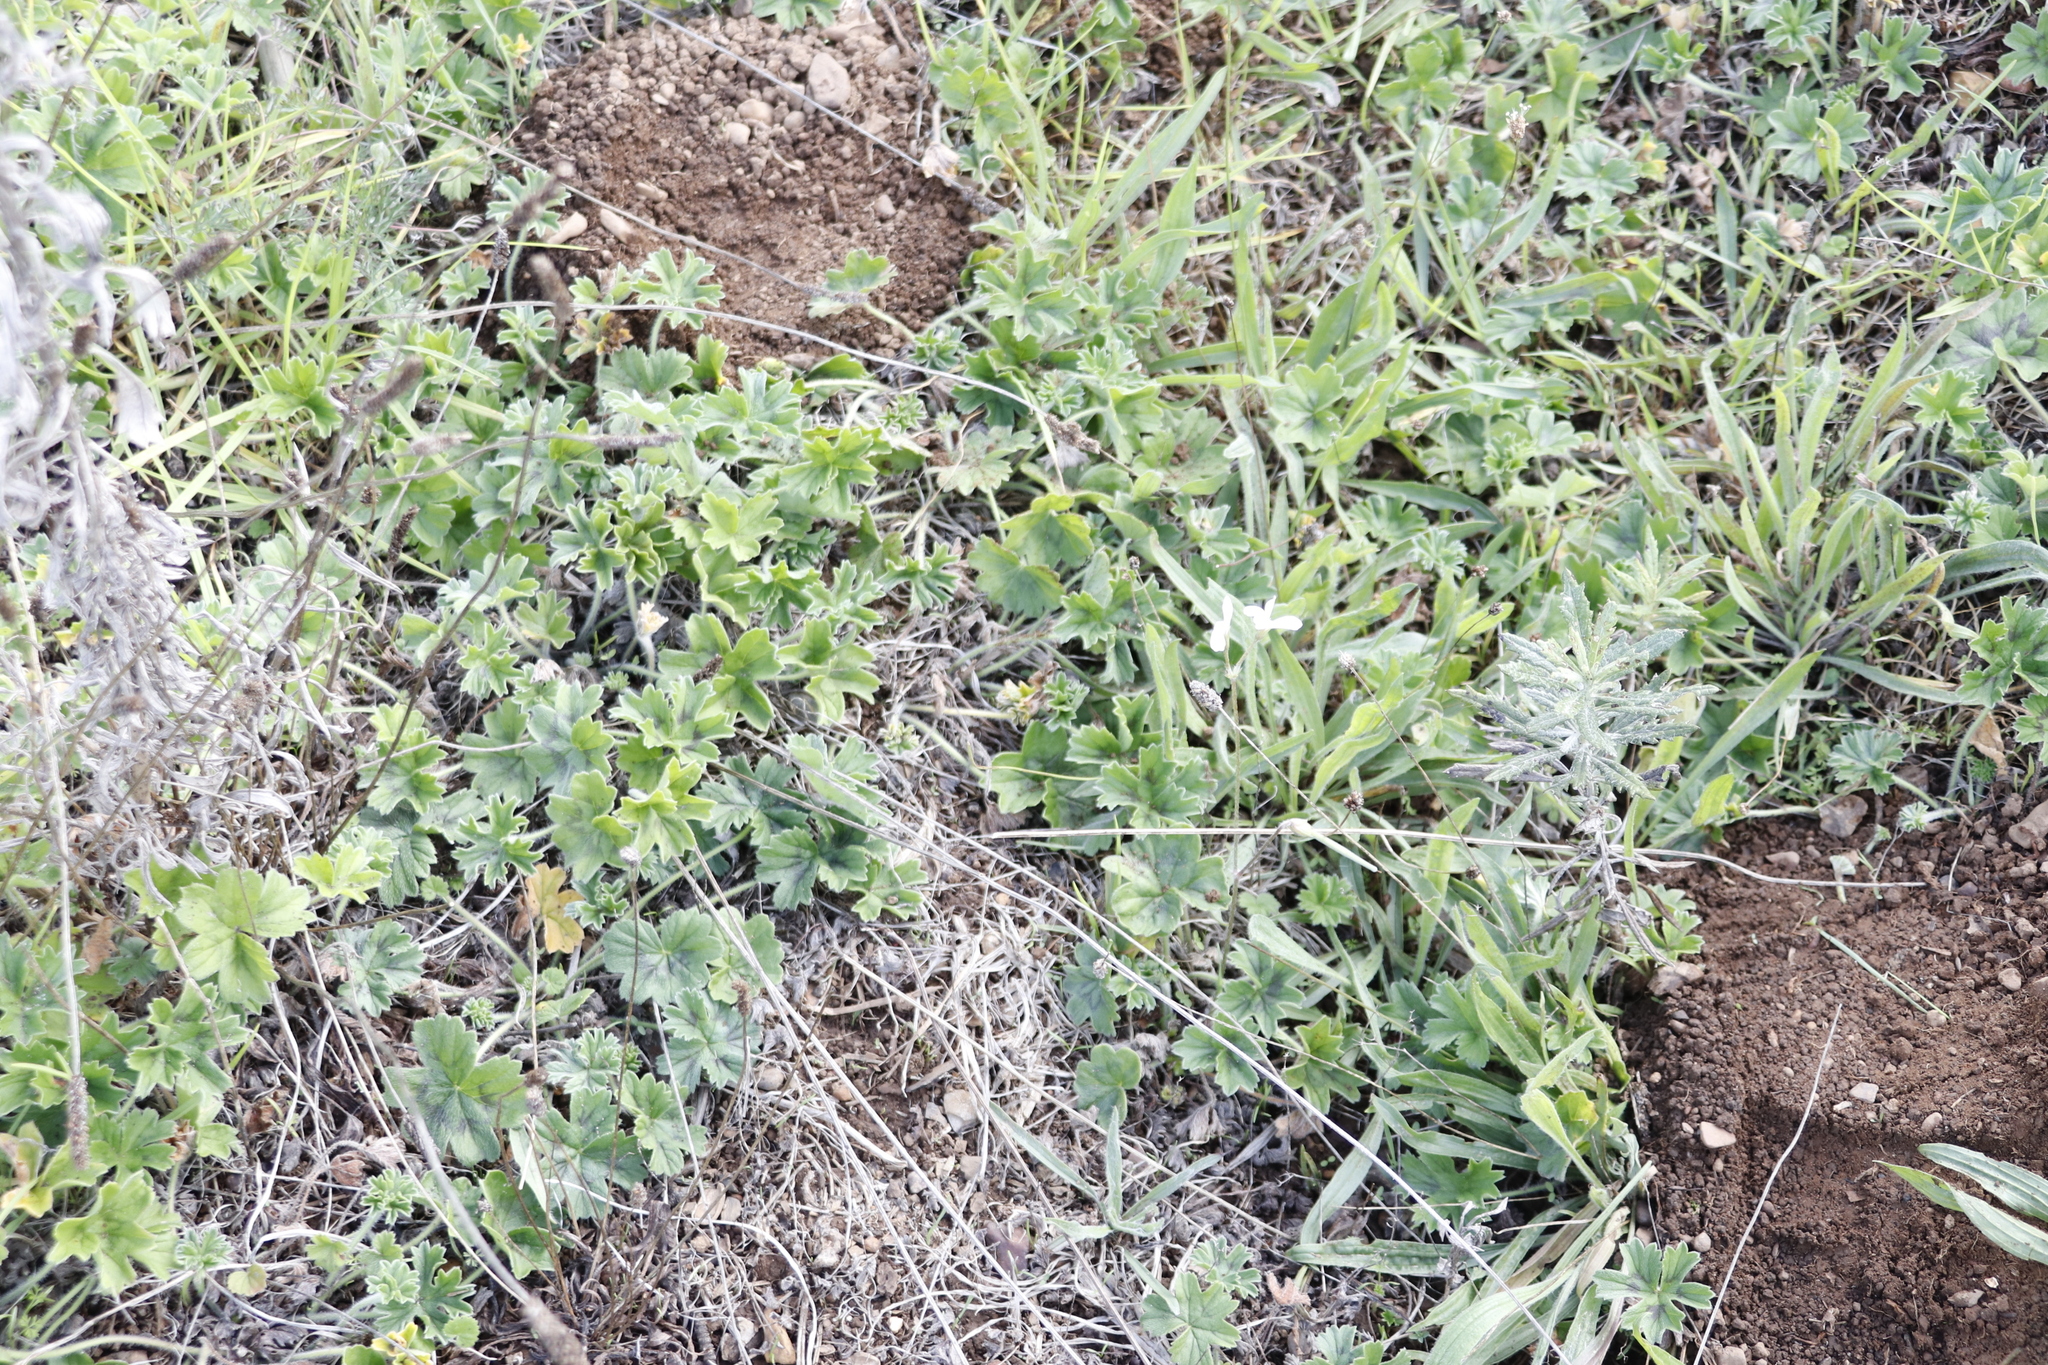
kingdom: Plantae
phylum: Tracheophyta
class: Magnoliopsida
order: Geraniales
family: Geraniaceae
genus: Pelargonium
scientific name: Pelargonium alchemilloides
